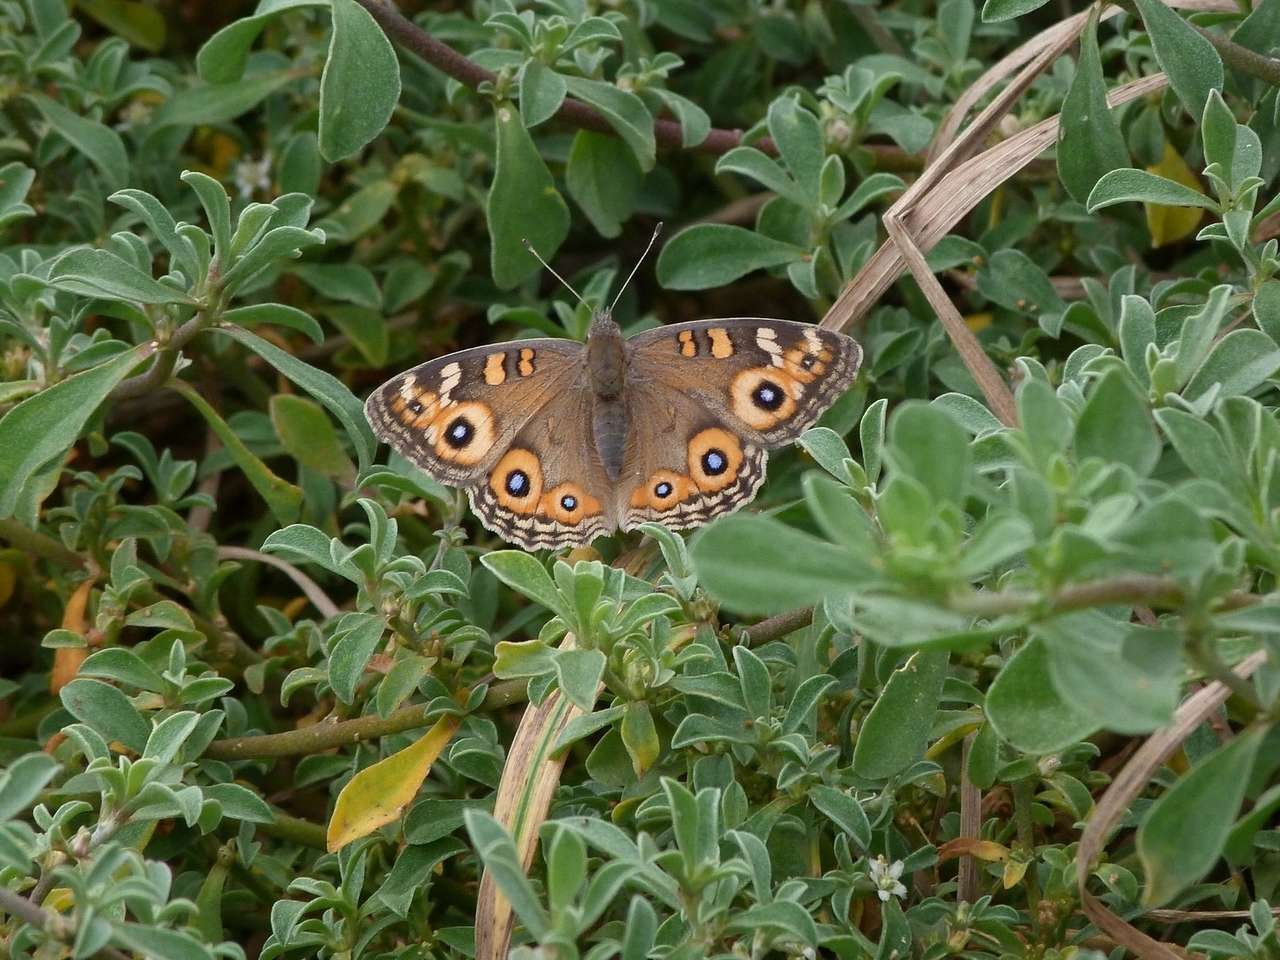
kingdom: Animalia
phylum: Arthropoda
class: Insecta
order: Lepidoptera
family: Nymphalidae
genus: Junonia
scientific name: Junonia villida
